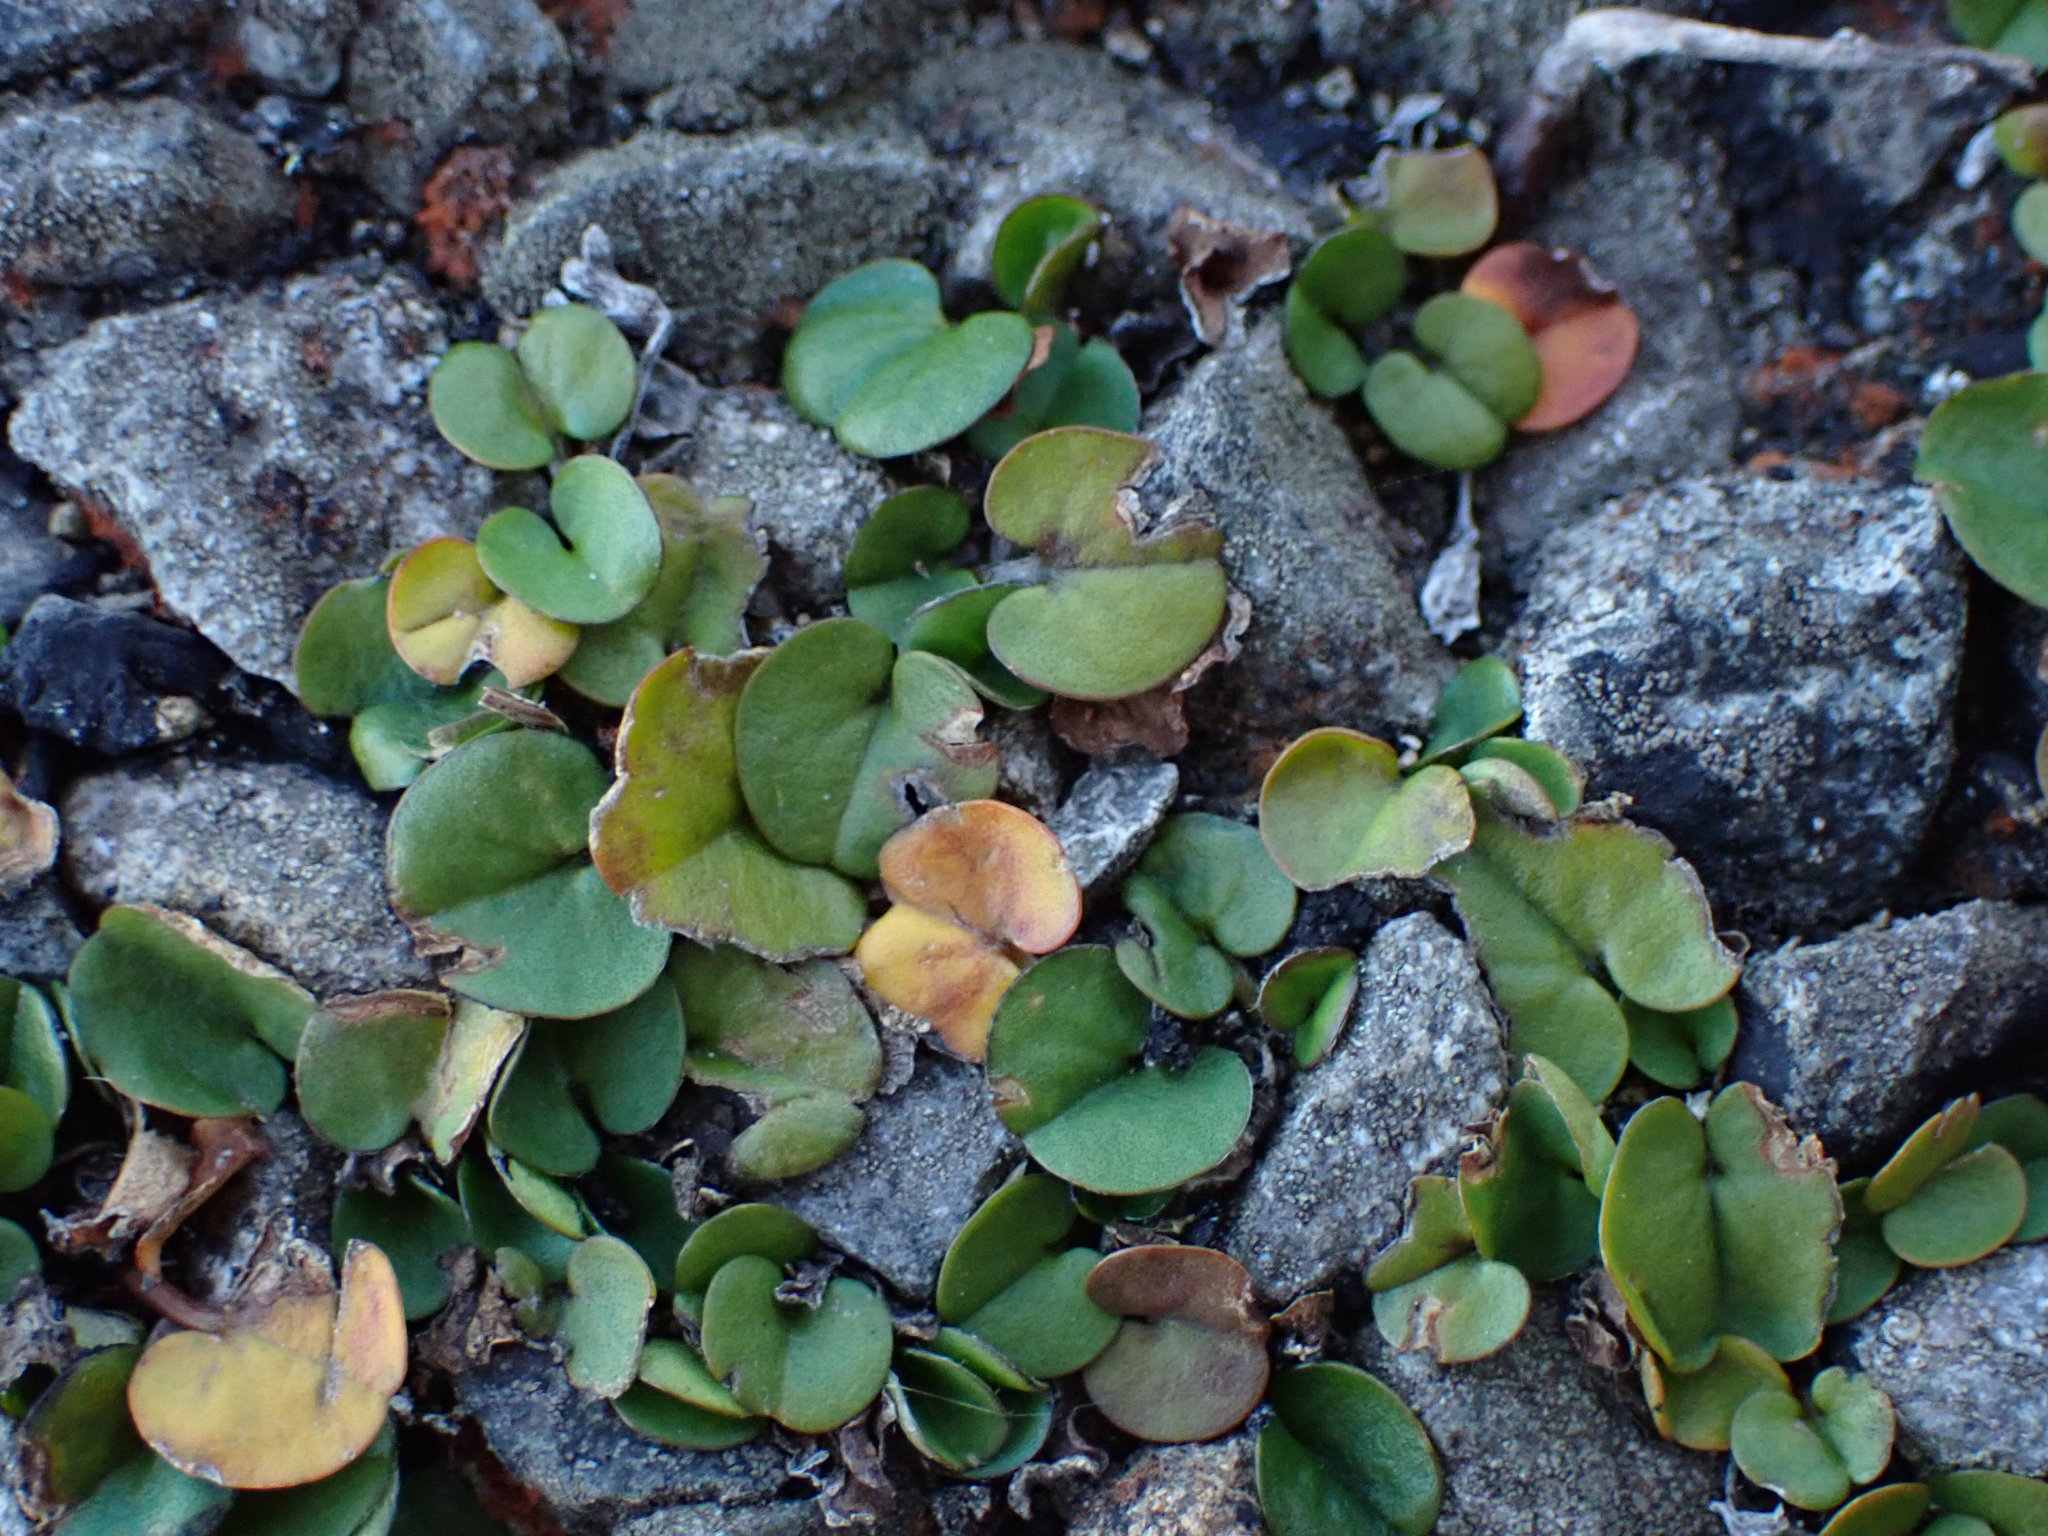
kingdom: Plantae
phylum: Tracheophyta
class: Magnoliopsida
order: Solanales
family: Convolvulaceae
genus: Dichondra
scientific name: Dichondra repens
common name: Kidneyweed
